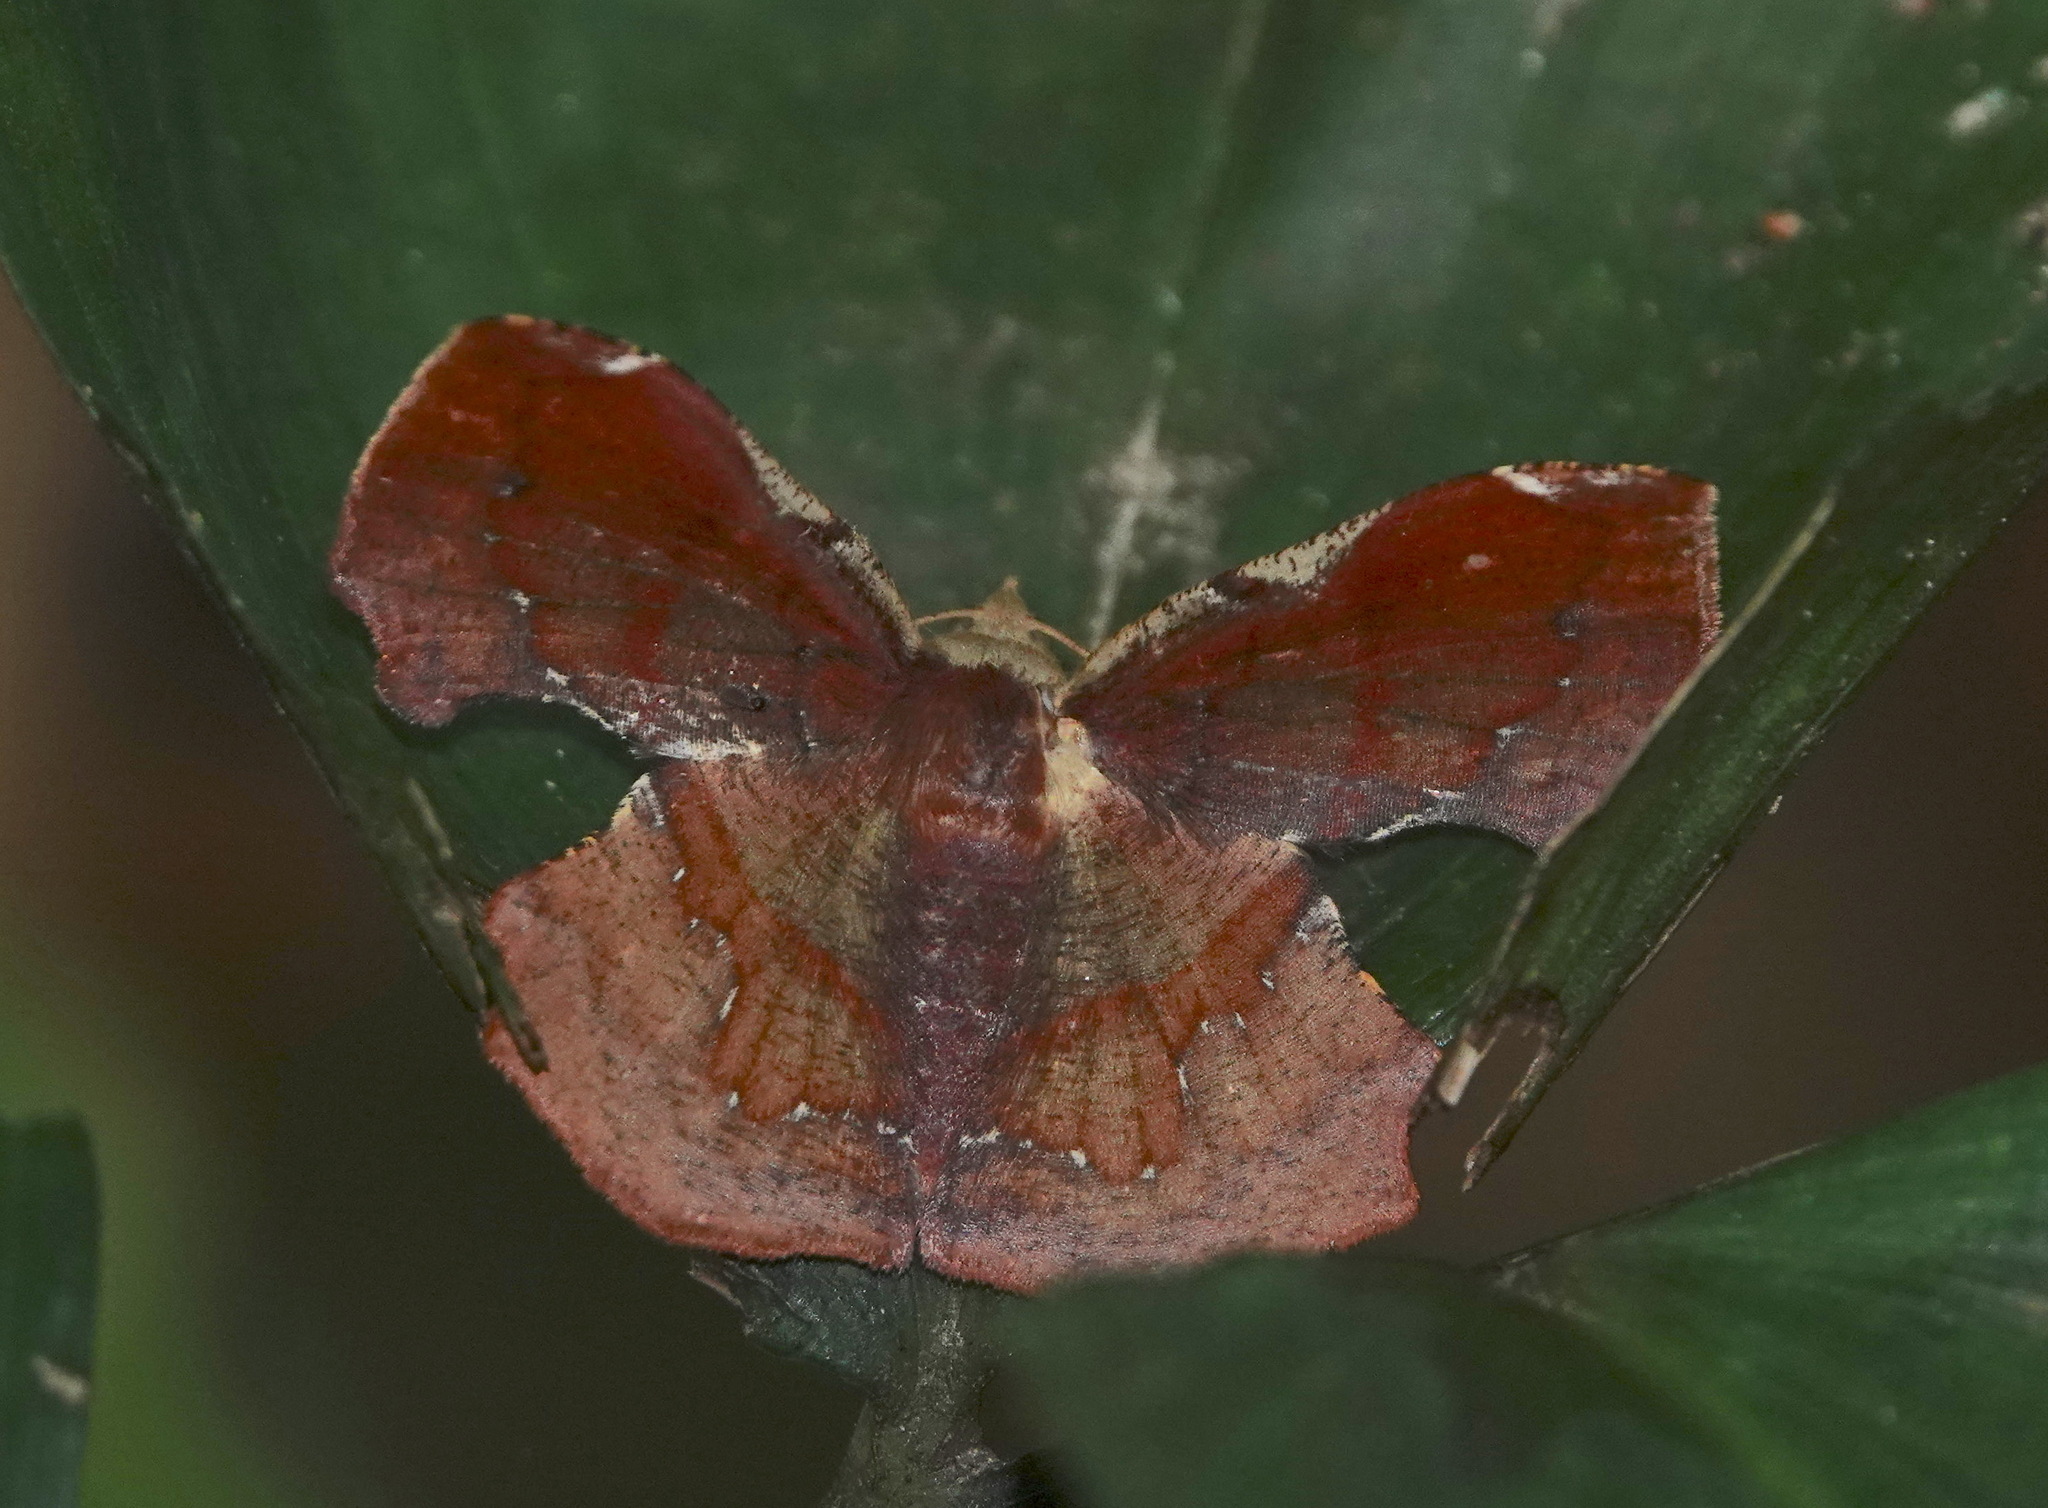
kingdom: Animalia
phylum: Arthropoda
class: Insecta
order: Lepidoptera
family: Geometridae
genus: Fascellina
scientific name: Fascellina castanea
